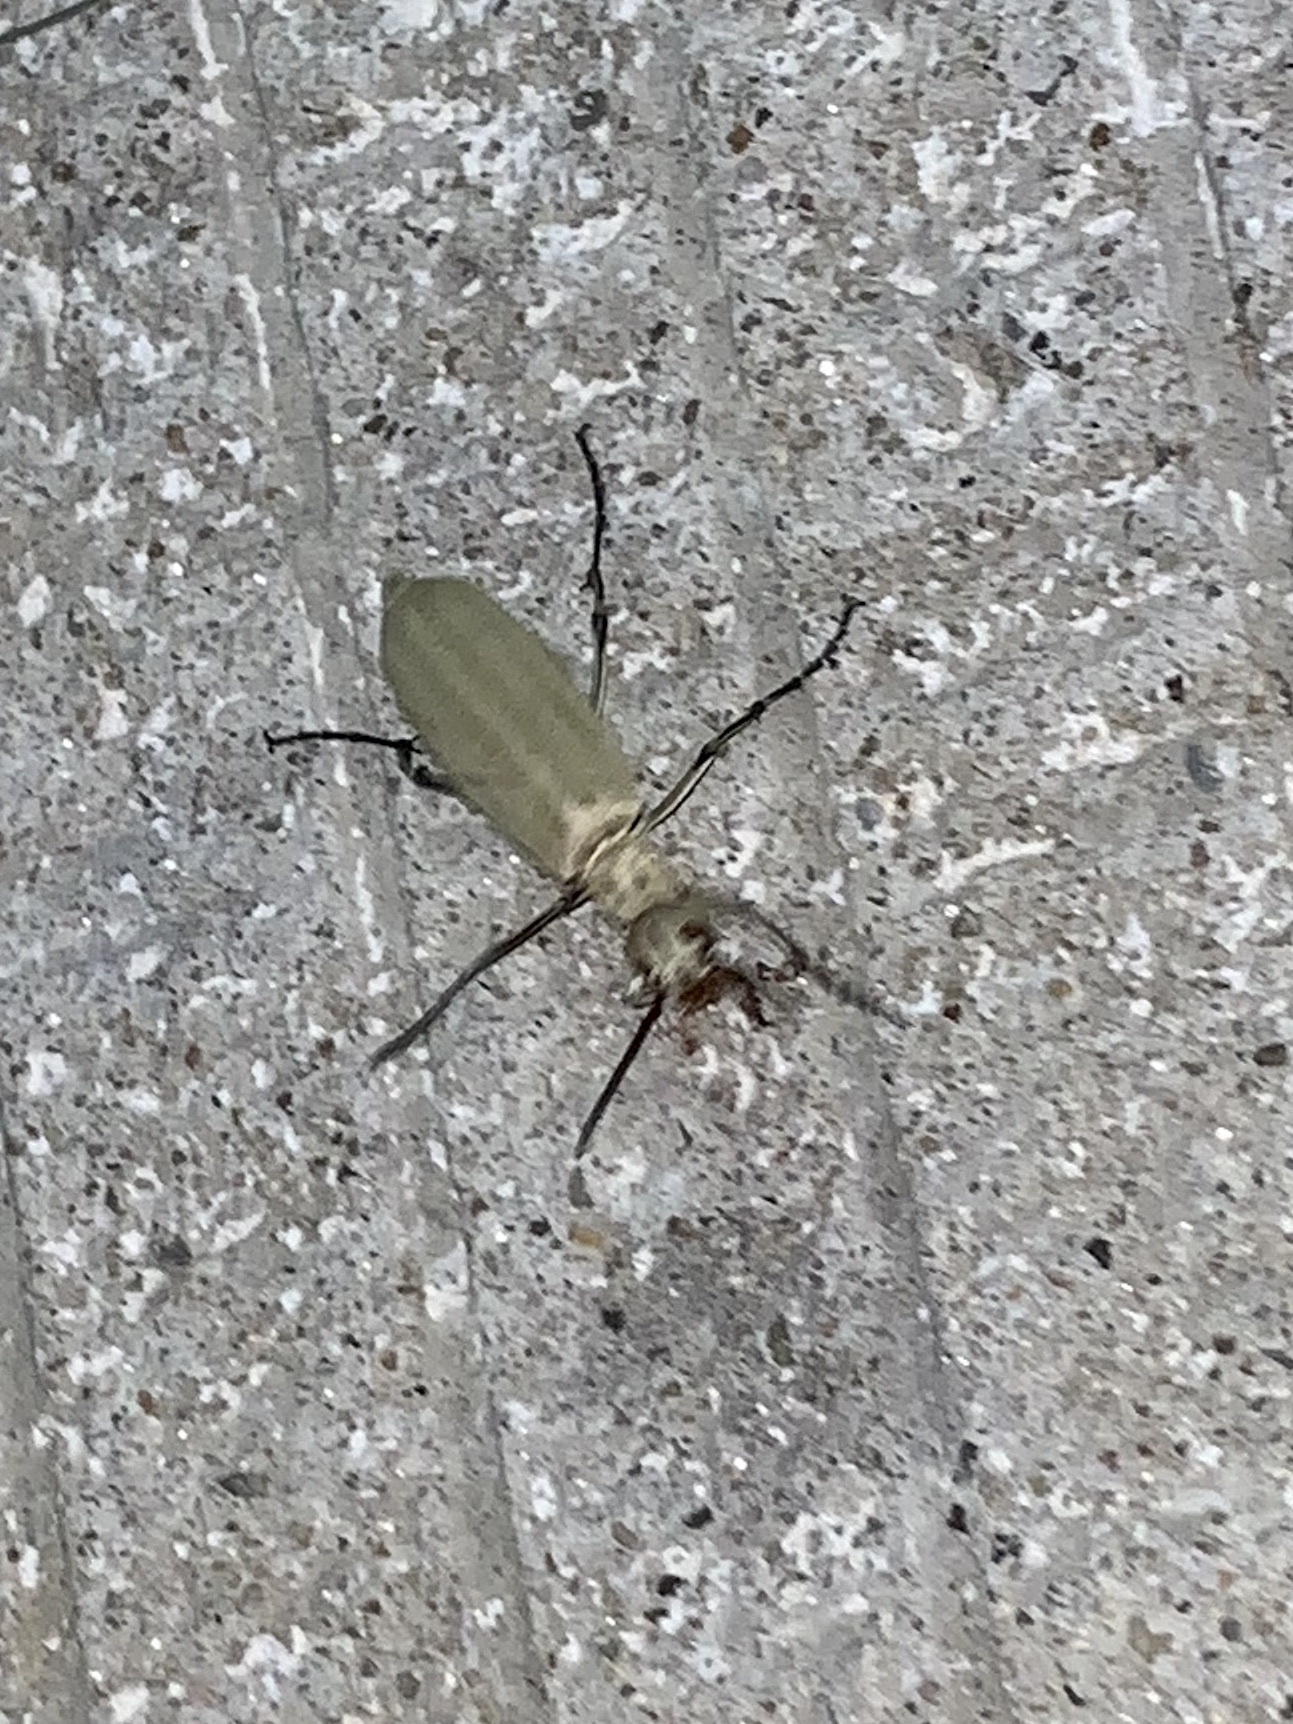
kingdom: Animalia
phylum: Arthropoda
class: Insecta
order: Coleoptera
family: Meloidae
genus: Epicauta
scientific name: Epicauta albida
